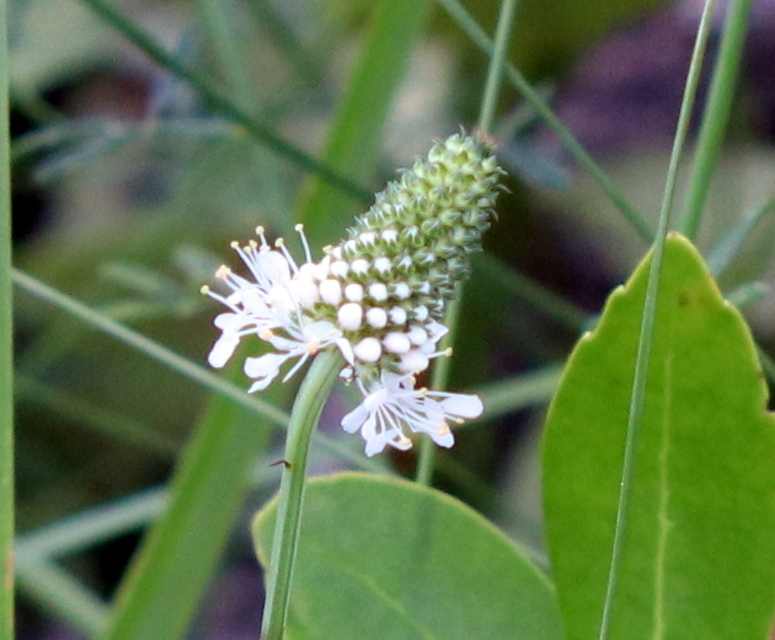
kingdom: Plantae
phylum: Tracheophyta
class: Magnoliopsida
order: Fabales
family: Fabaceae
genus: Dalea
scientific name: Dalea mountjoyae
